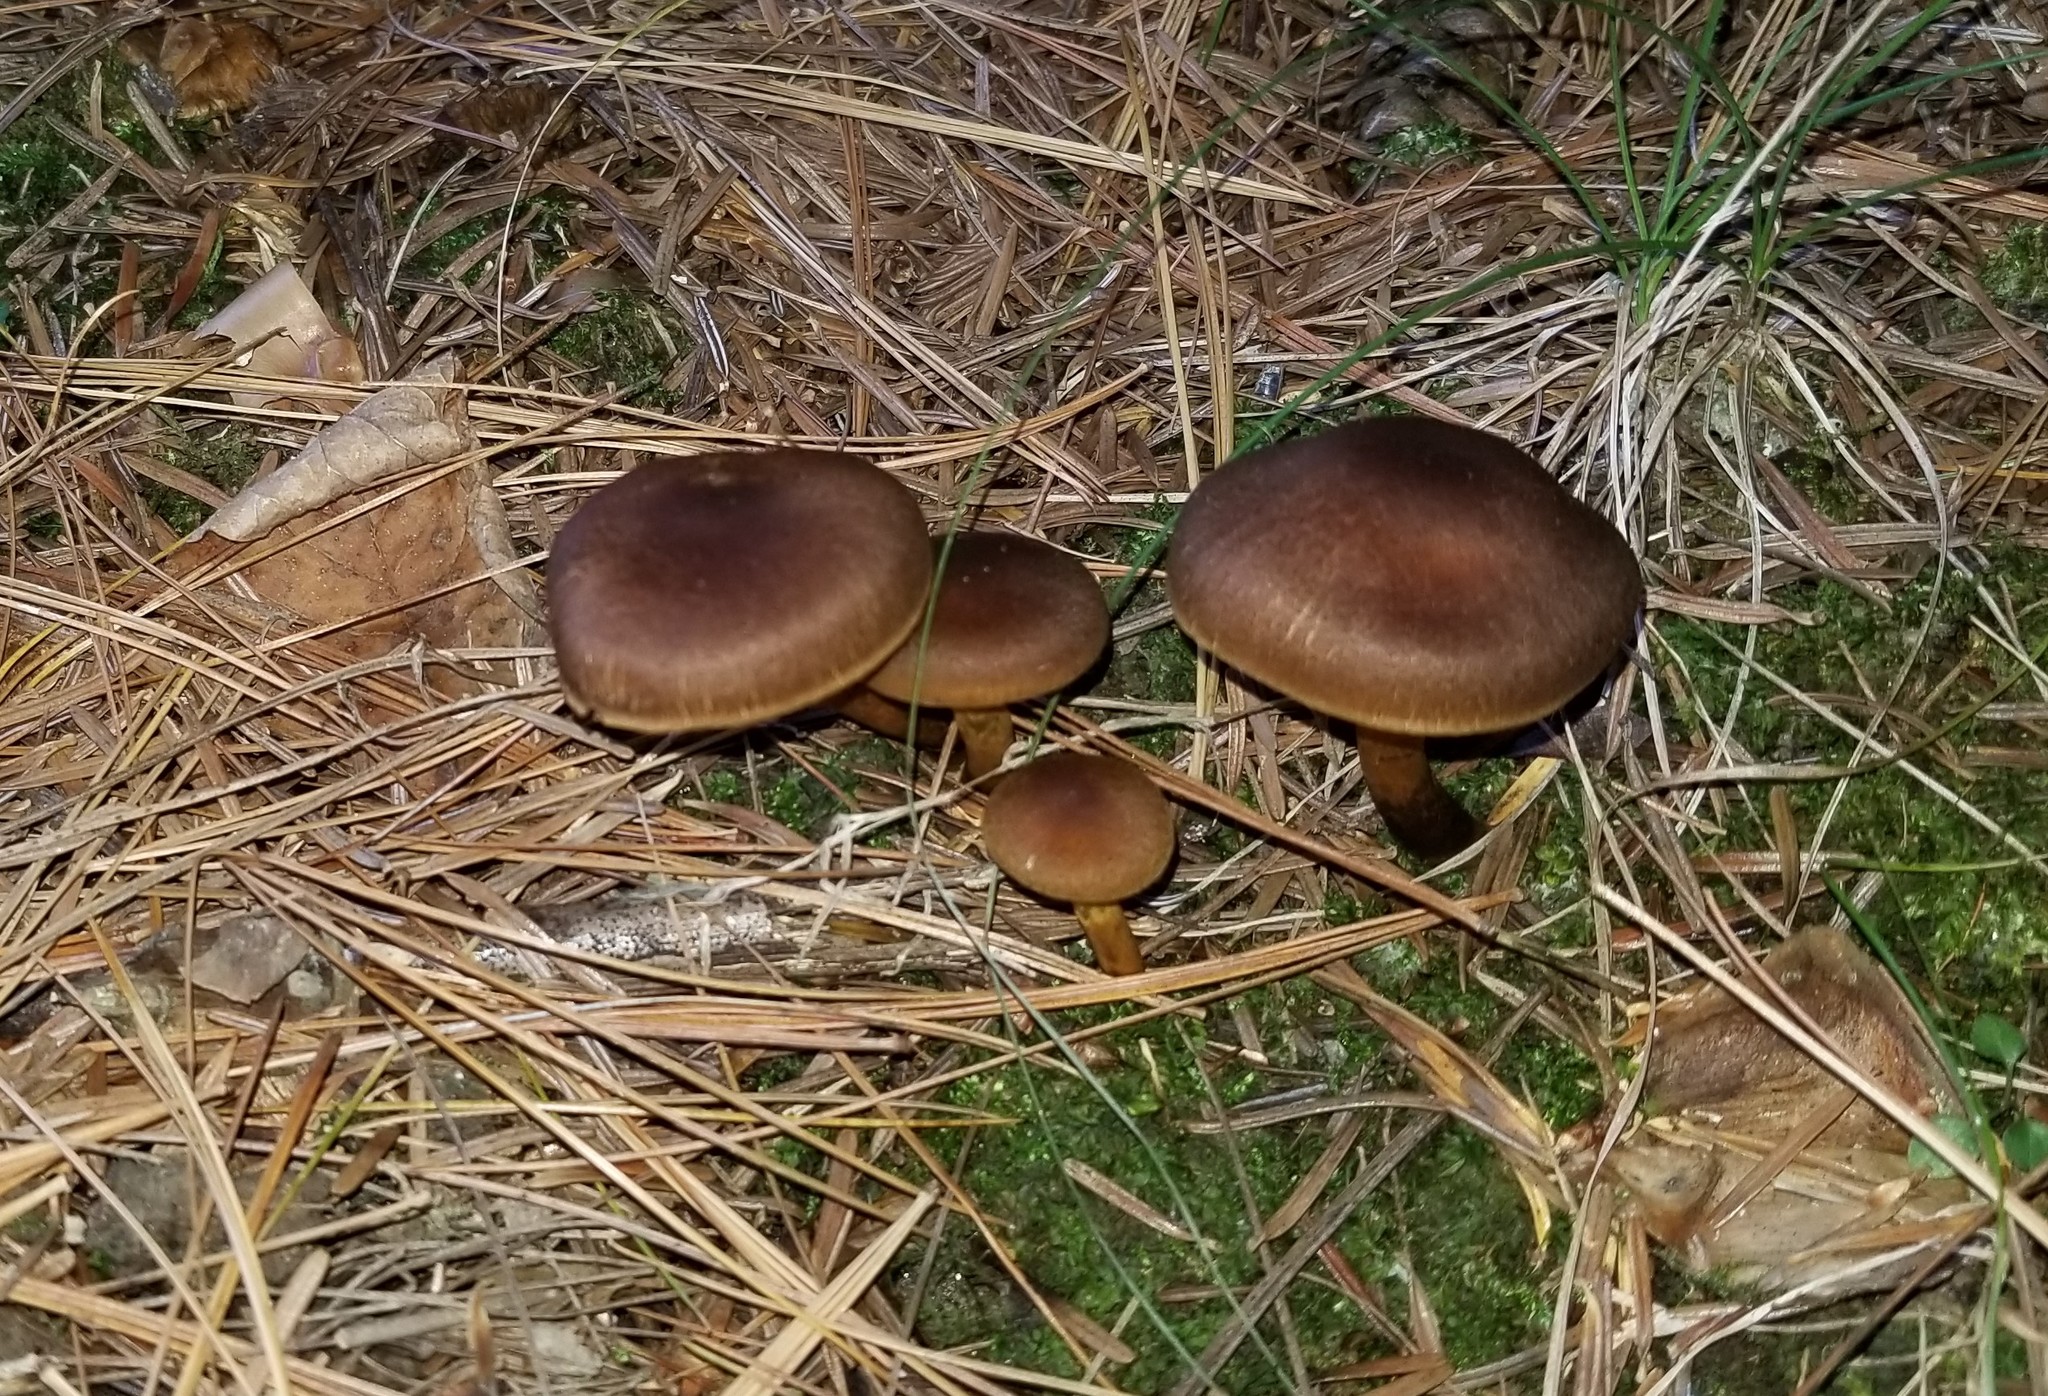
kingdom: Fungi
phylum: Basidiomycota
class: Agaricomycetes
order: Agaricales
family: Cortinariaceae
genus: Cortinarius
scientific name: Cortinarius croceus
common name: Saffron webcap
